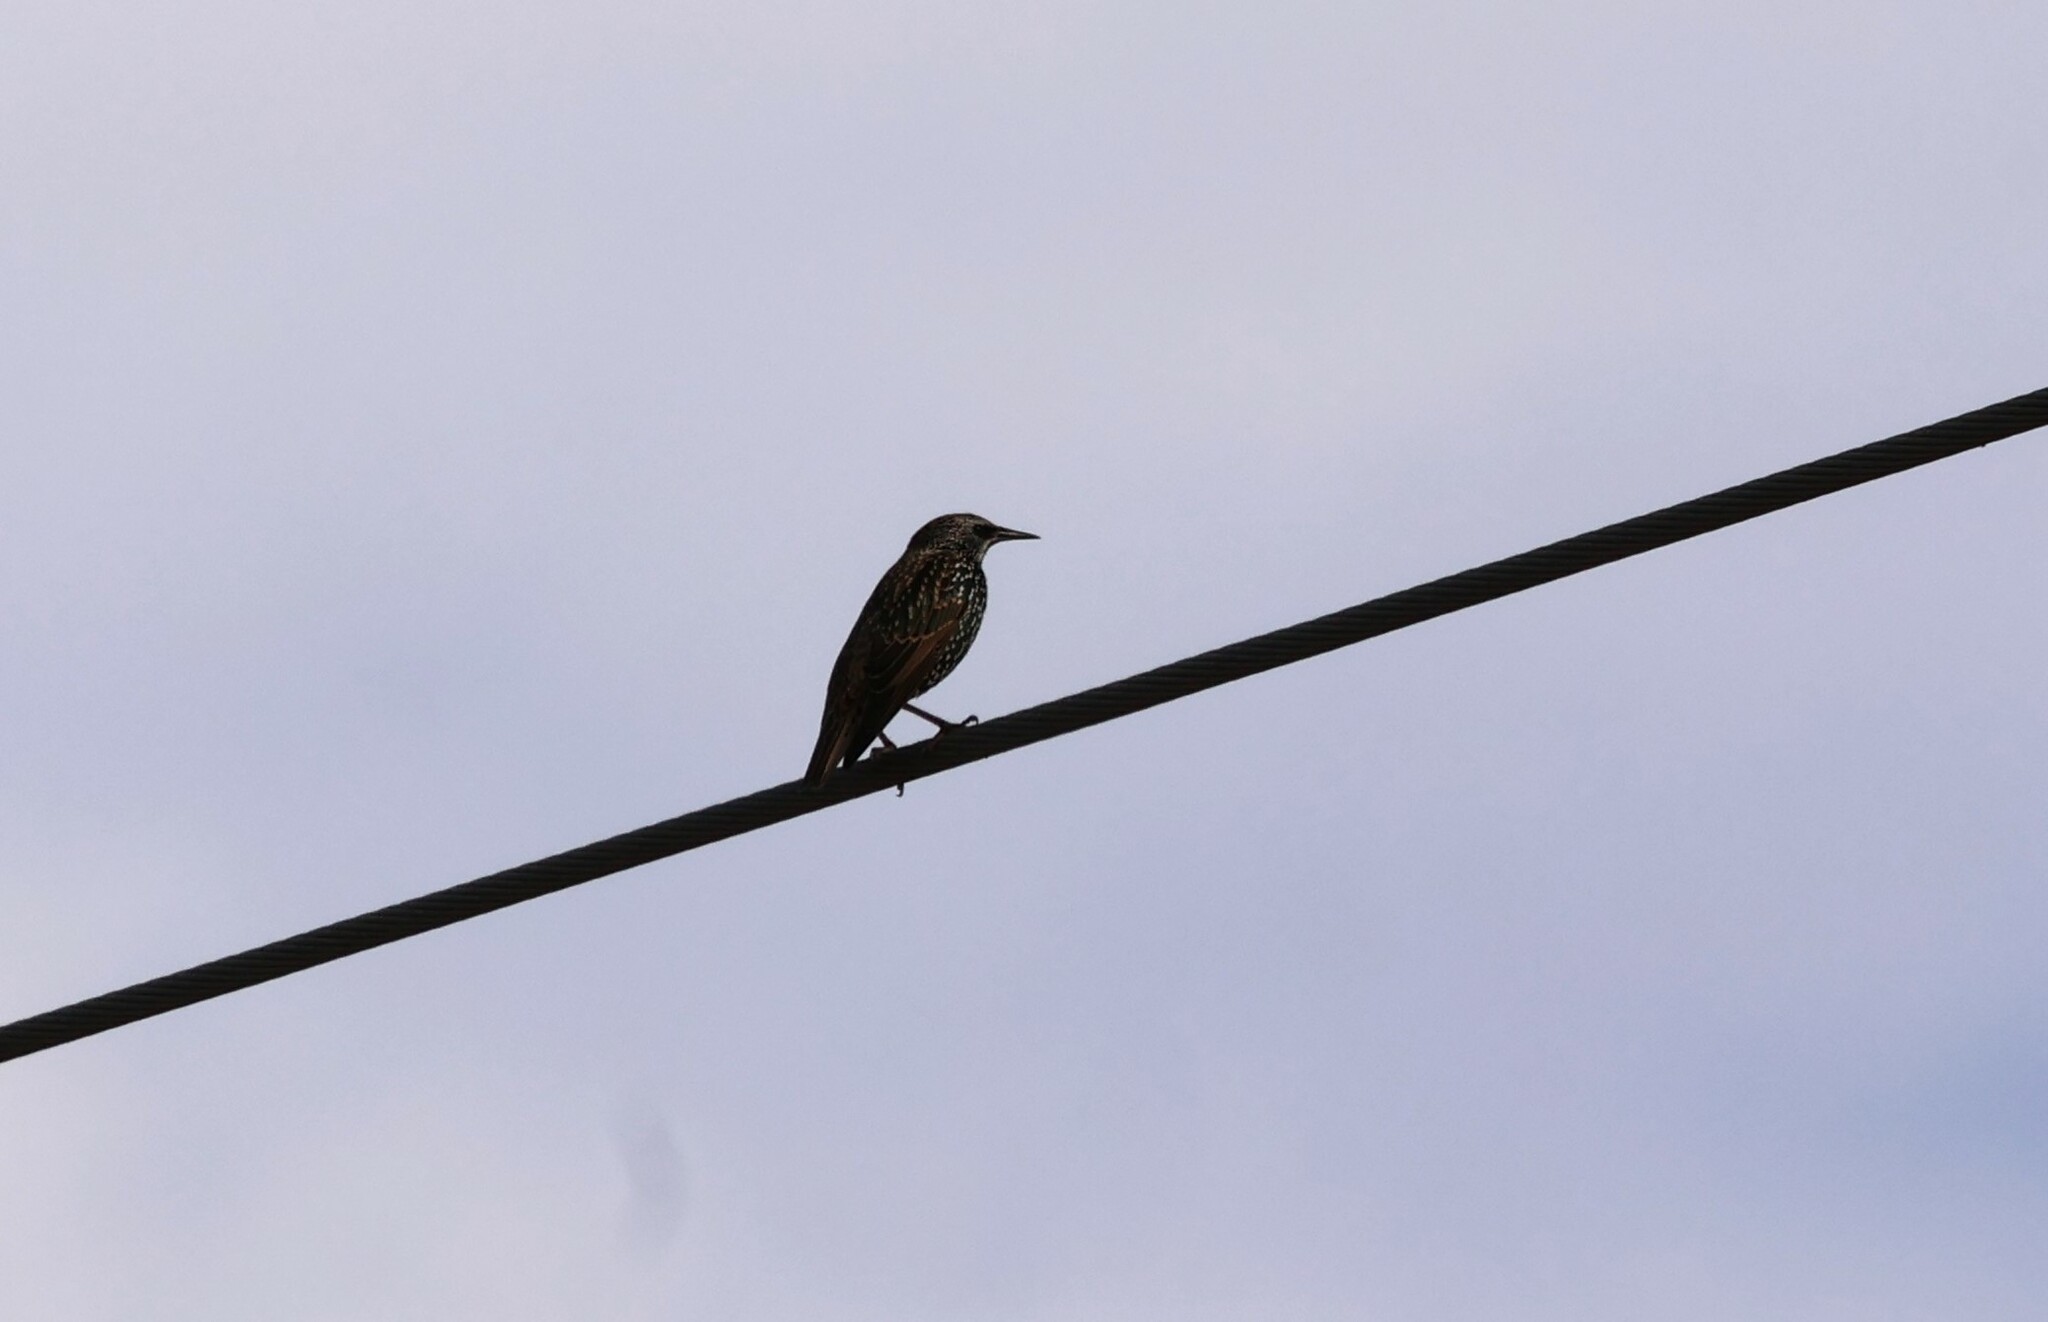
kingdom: Animalia
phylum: Chordata
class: Aves
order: Passeriformes
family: Sturnidae
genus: Sturnus
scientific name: Sturnus vulgaris
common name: Common starling
